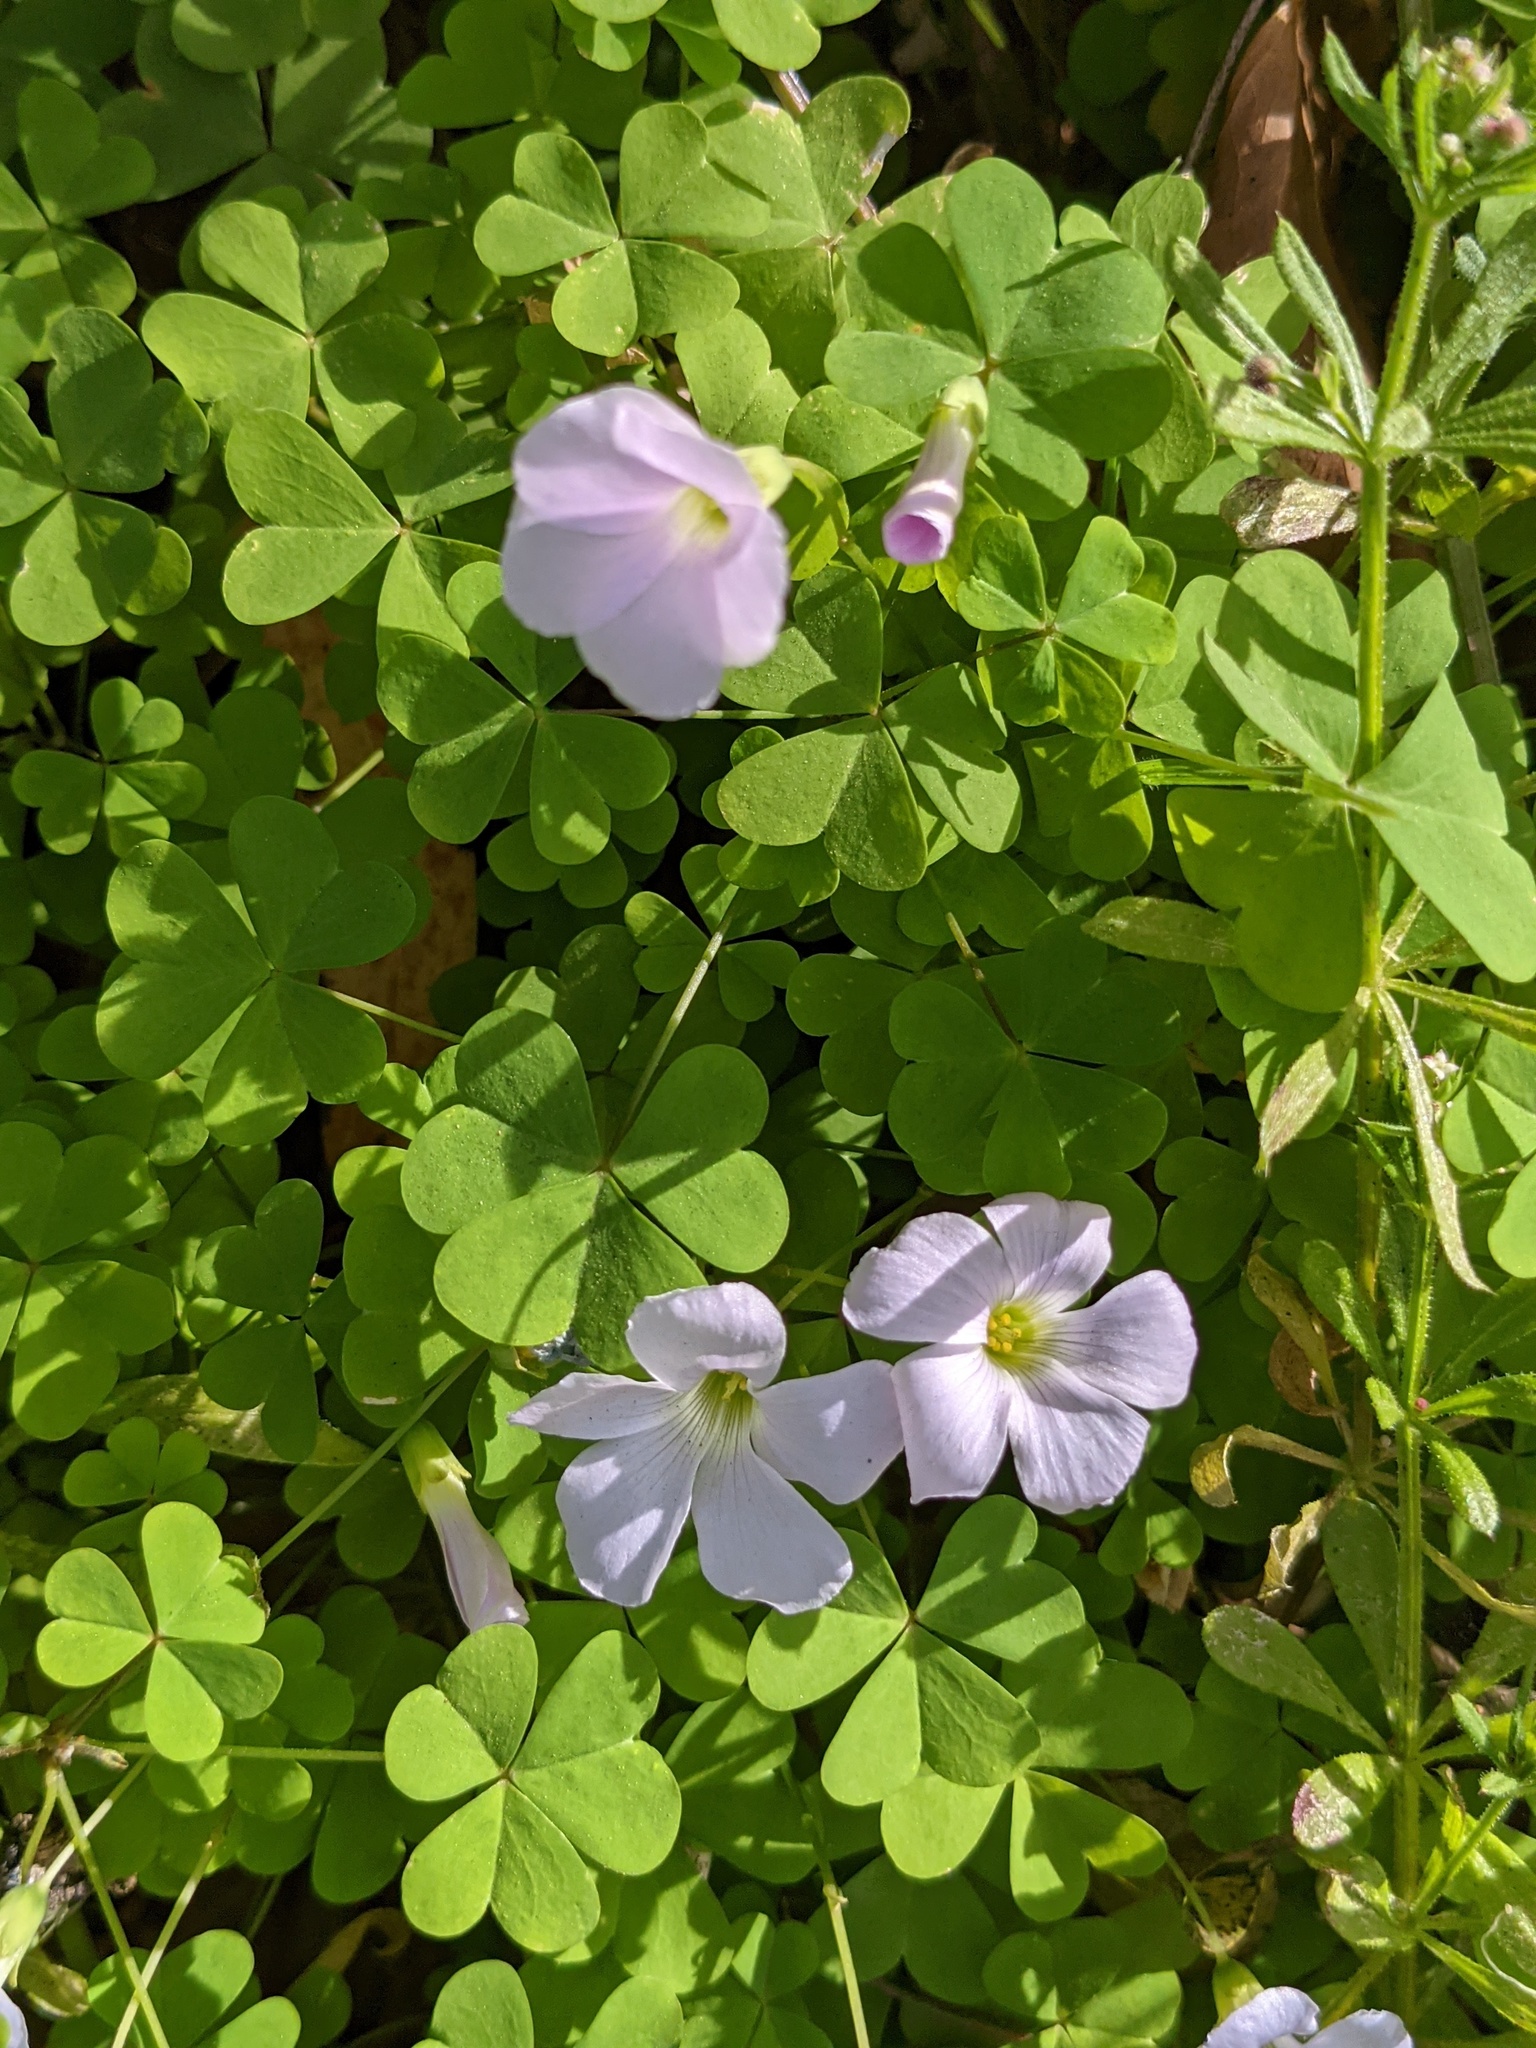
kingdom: Plantae
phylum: Tracheophyta
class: Magnoliopsida
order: Oxalidales
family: Oxalidaceae
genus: Oxalis
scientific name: Oxalis incarnata
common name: Pale pink-sorrel
